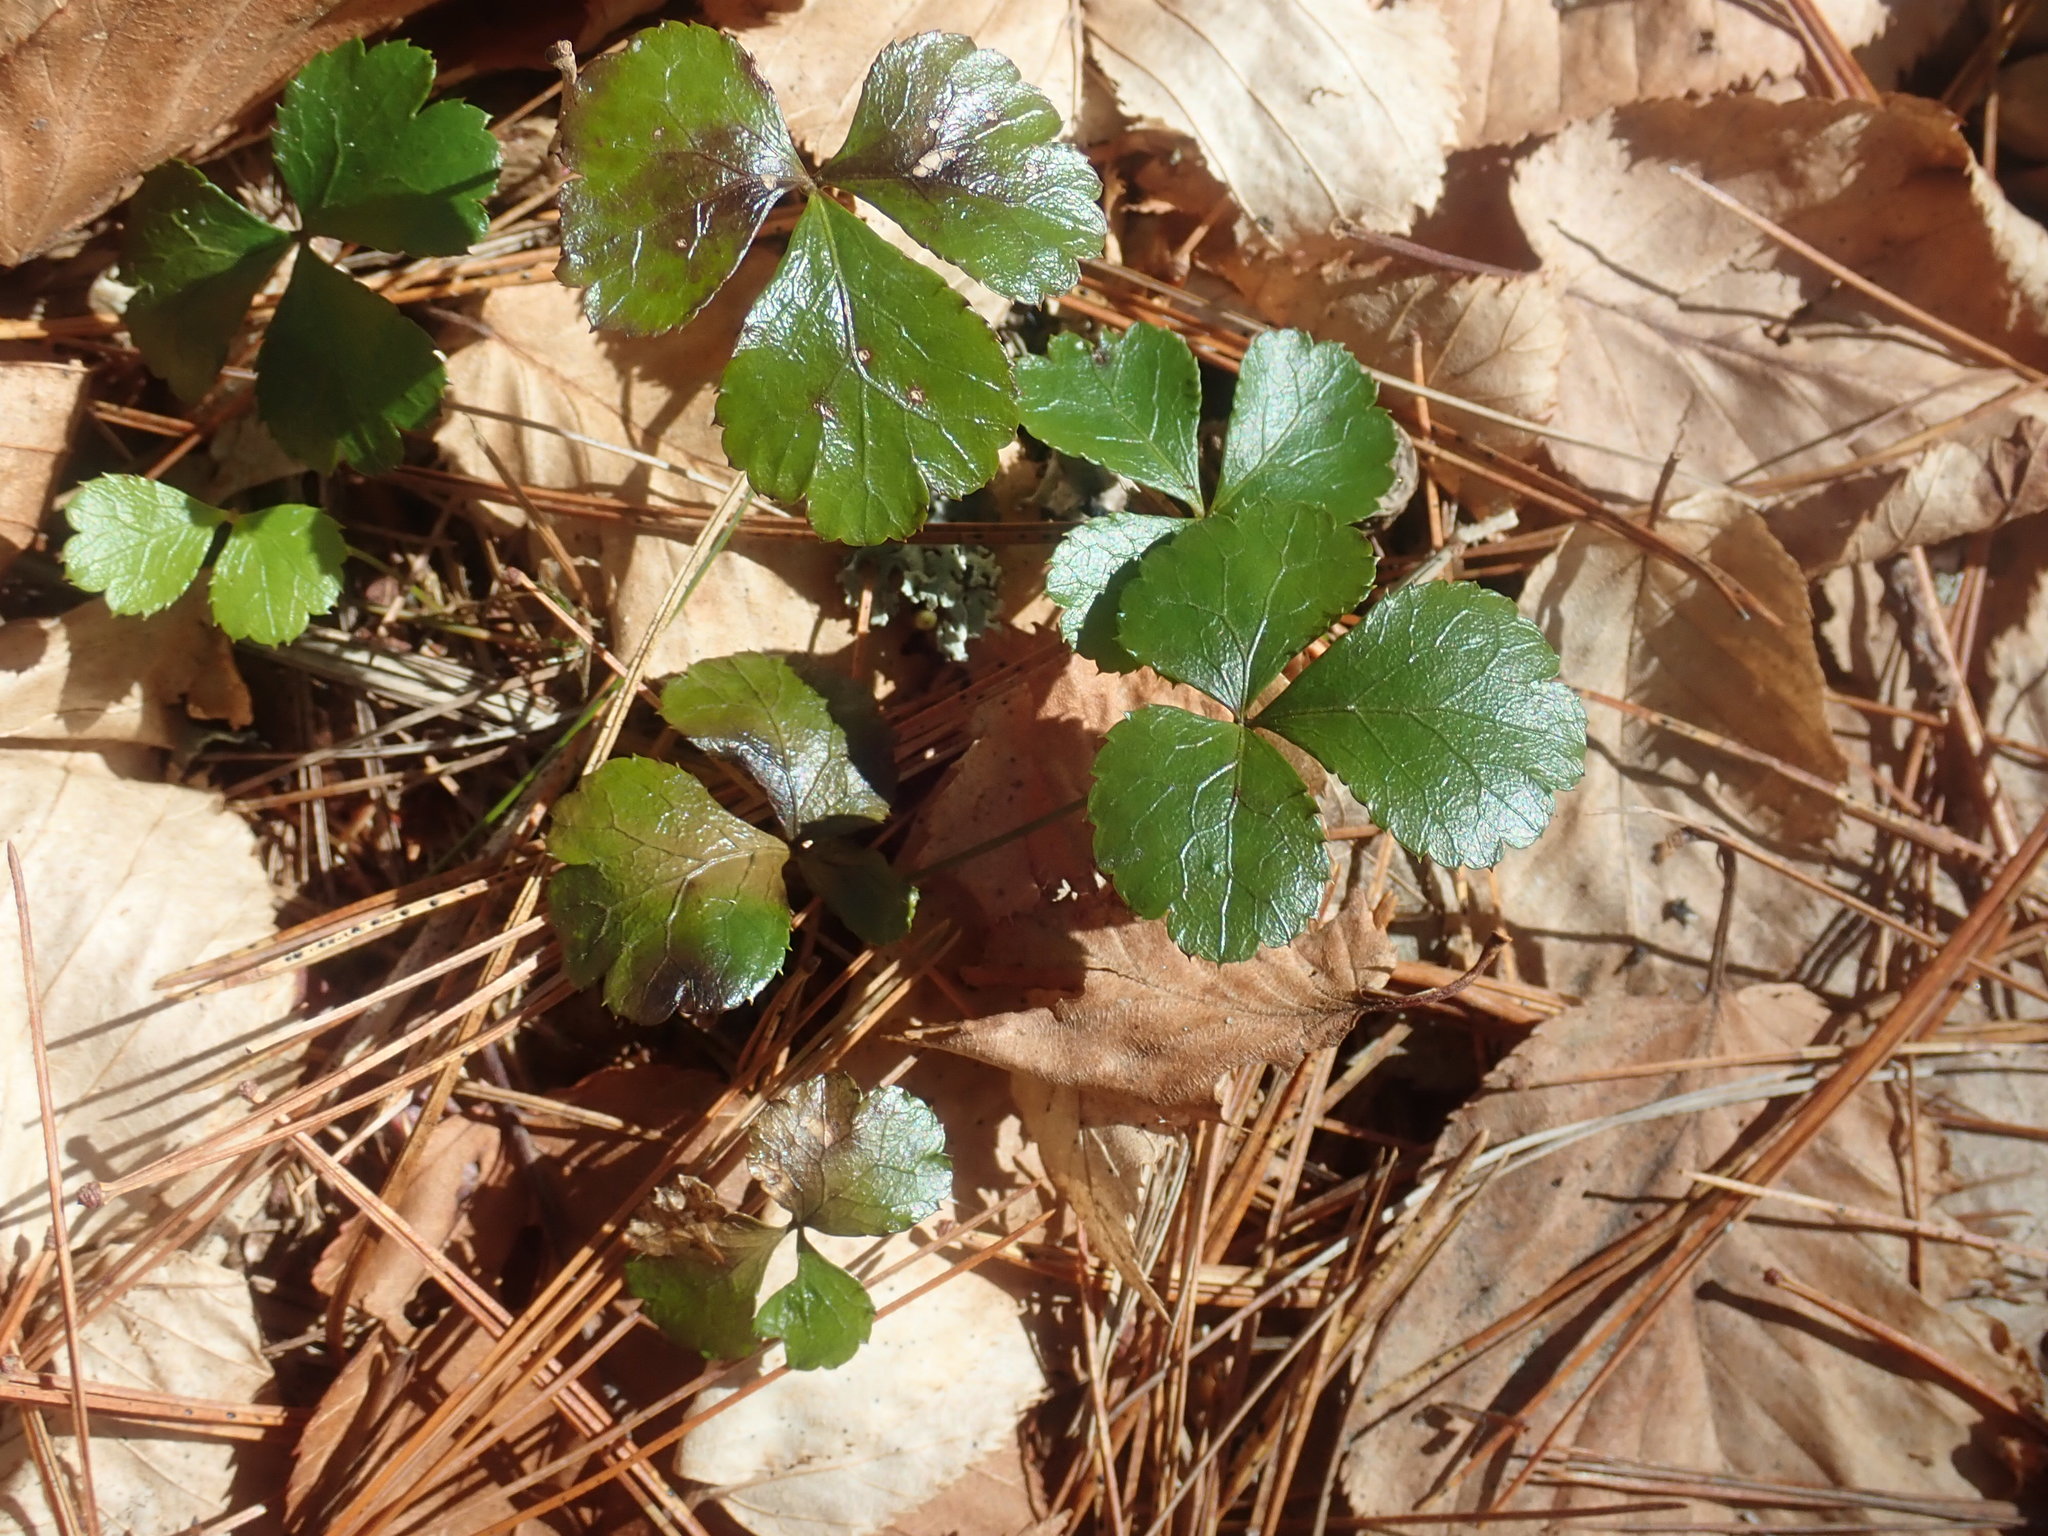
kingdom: Plantae
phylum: Tracheophyta
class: Magnoliopsida
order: Ranunculales
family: Ranunculaceae
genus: Coptis
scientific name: Coptis trifolia
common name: Canker-root
